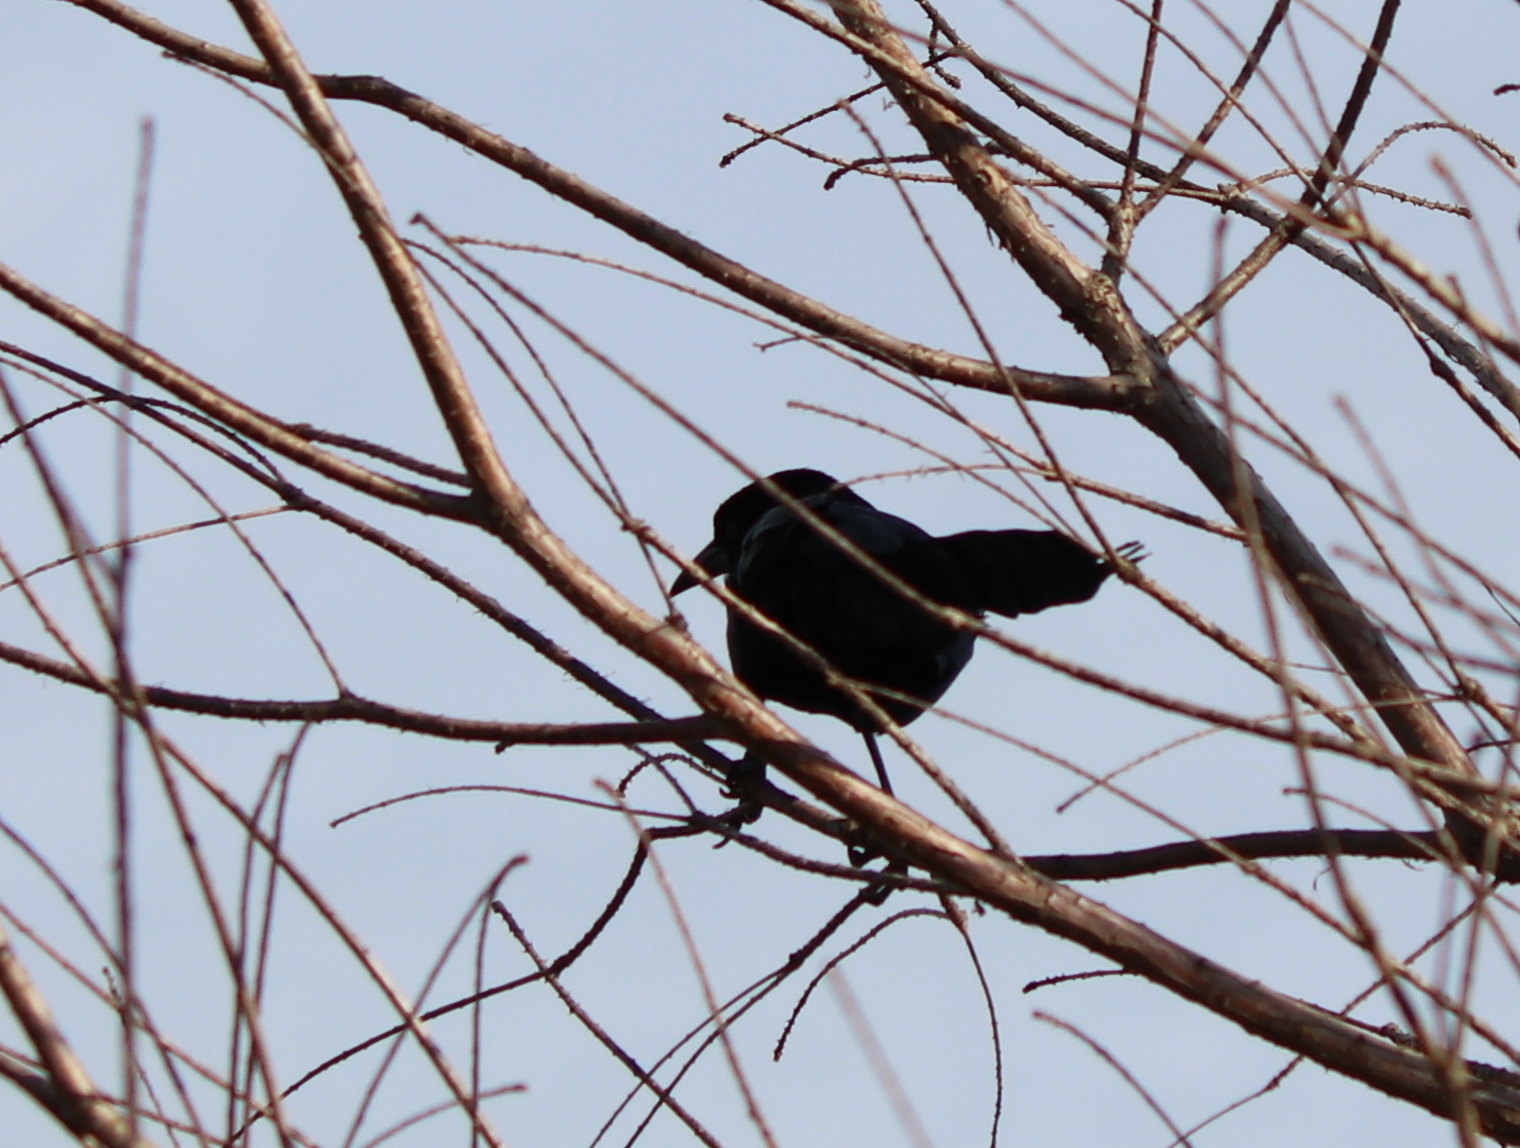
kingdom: Animalia
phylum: Chordata
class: Aves
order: Passeriformes
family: Icteridae
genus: Quiscalus
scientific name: Quiscalus major
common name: Boat-tailed grackle
